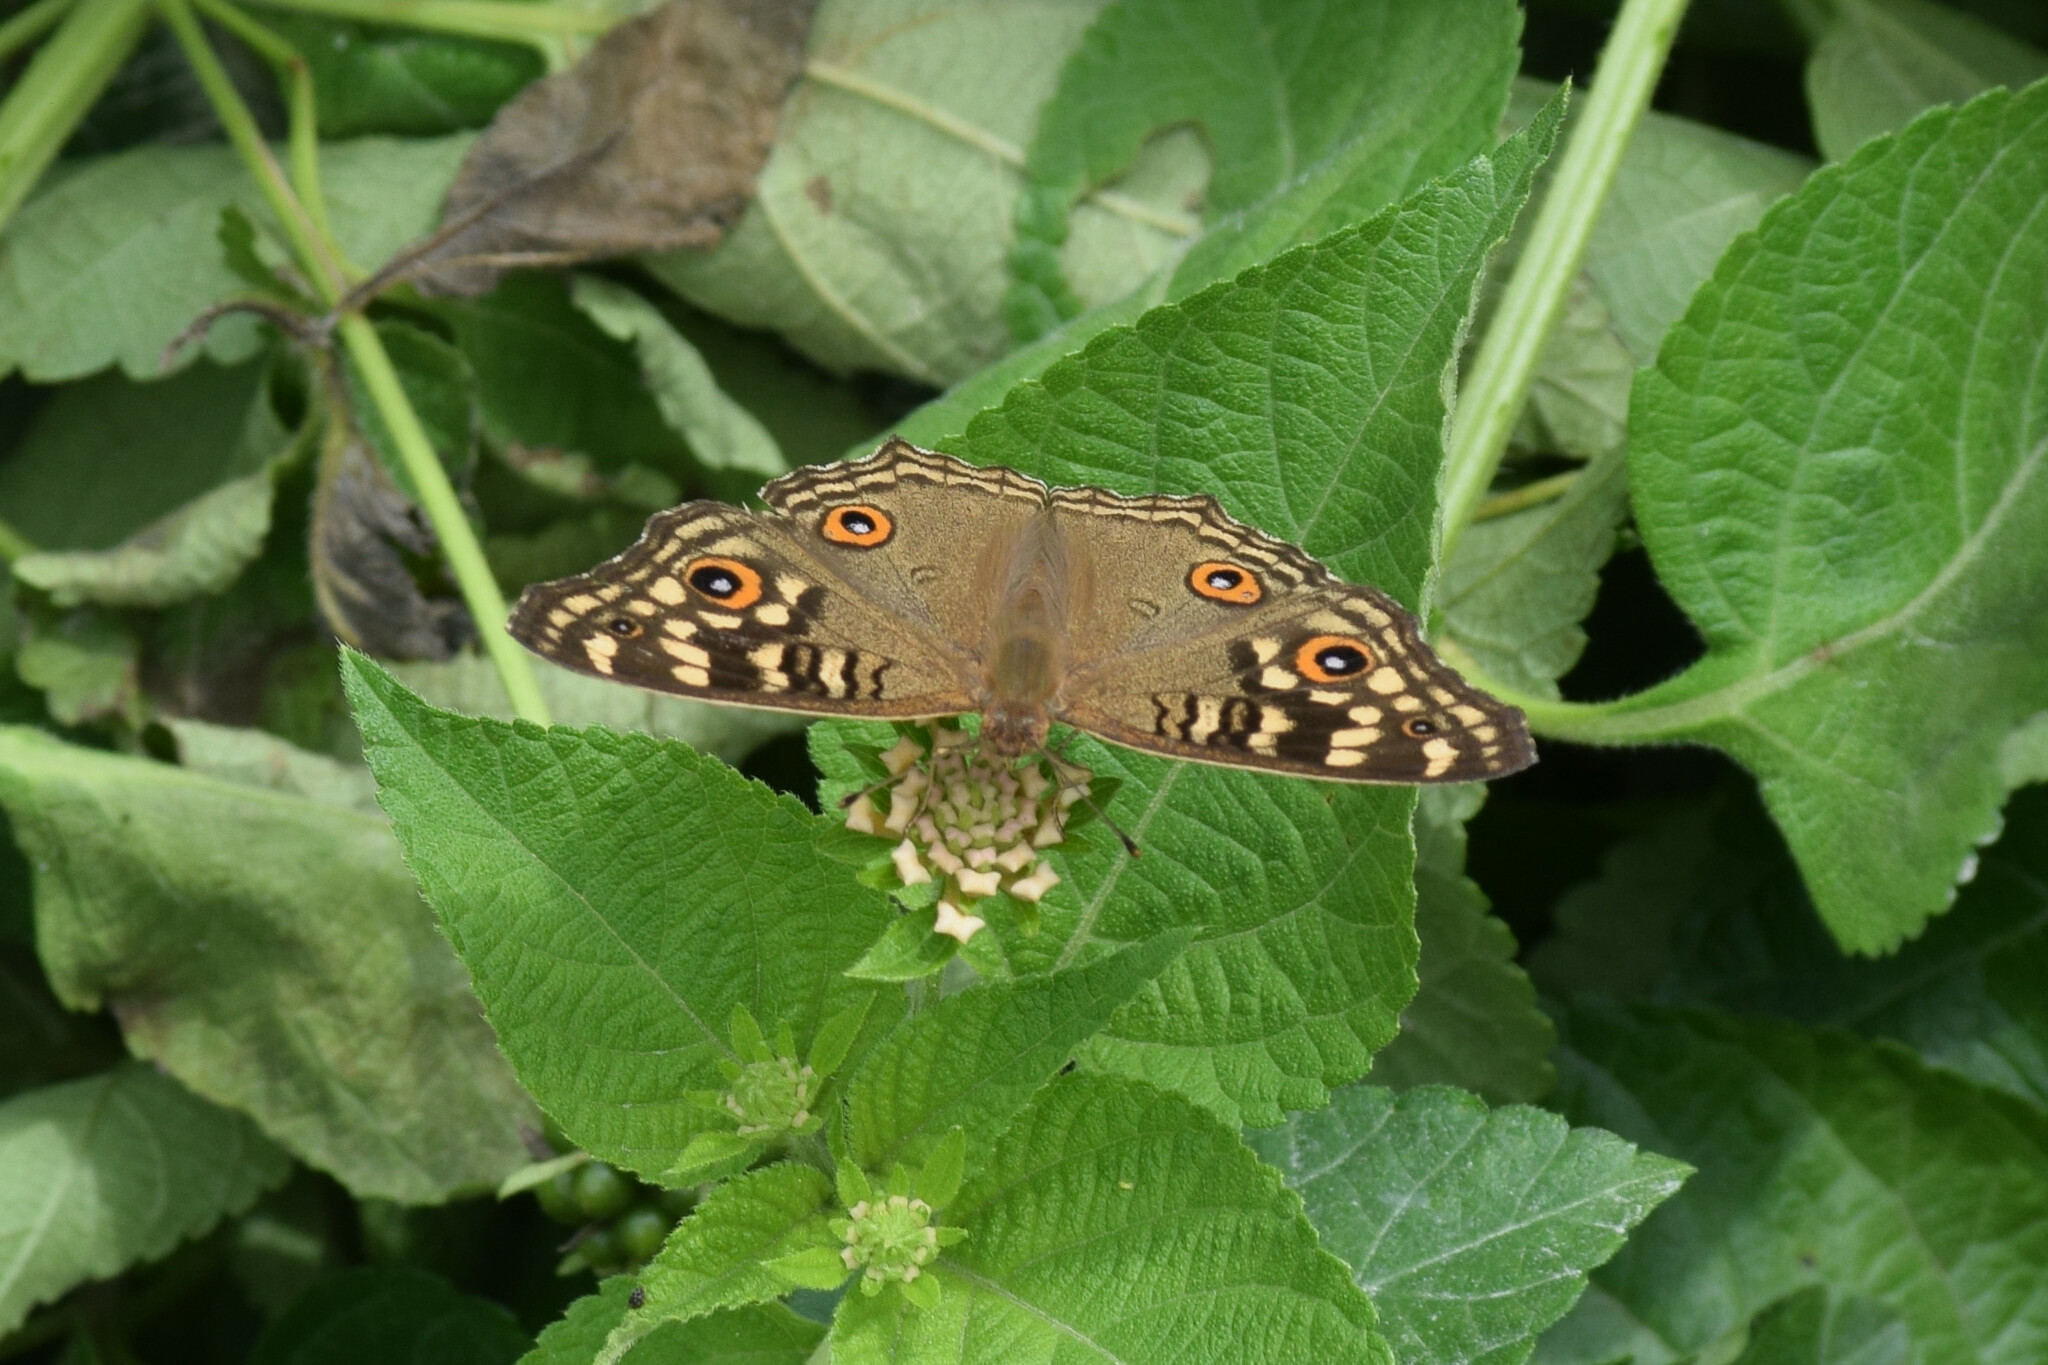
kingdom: Animalia
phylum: Arthropoda
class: Insecta
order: Lepidoptera
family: Nymphalidae
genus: Junonia
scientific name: Junonia lemonias
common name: Lemon pansy
